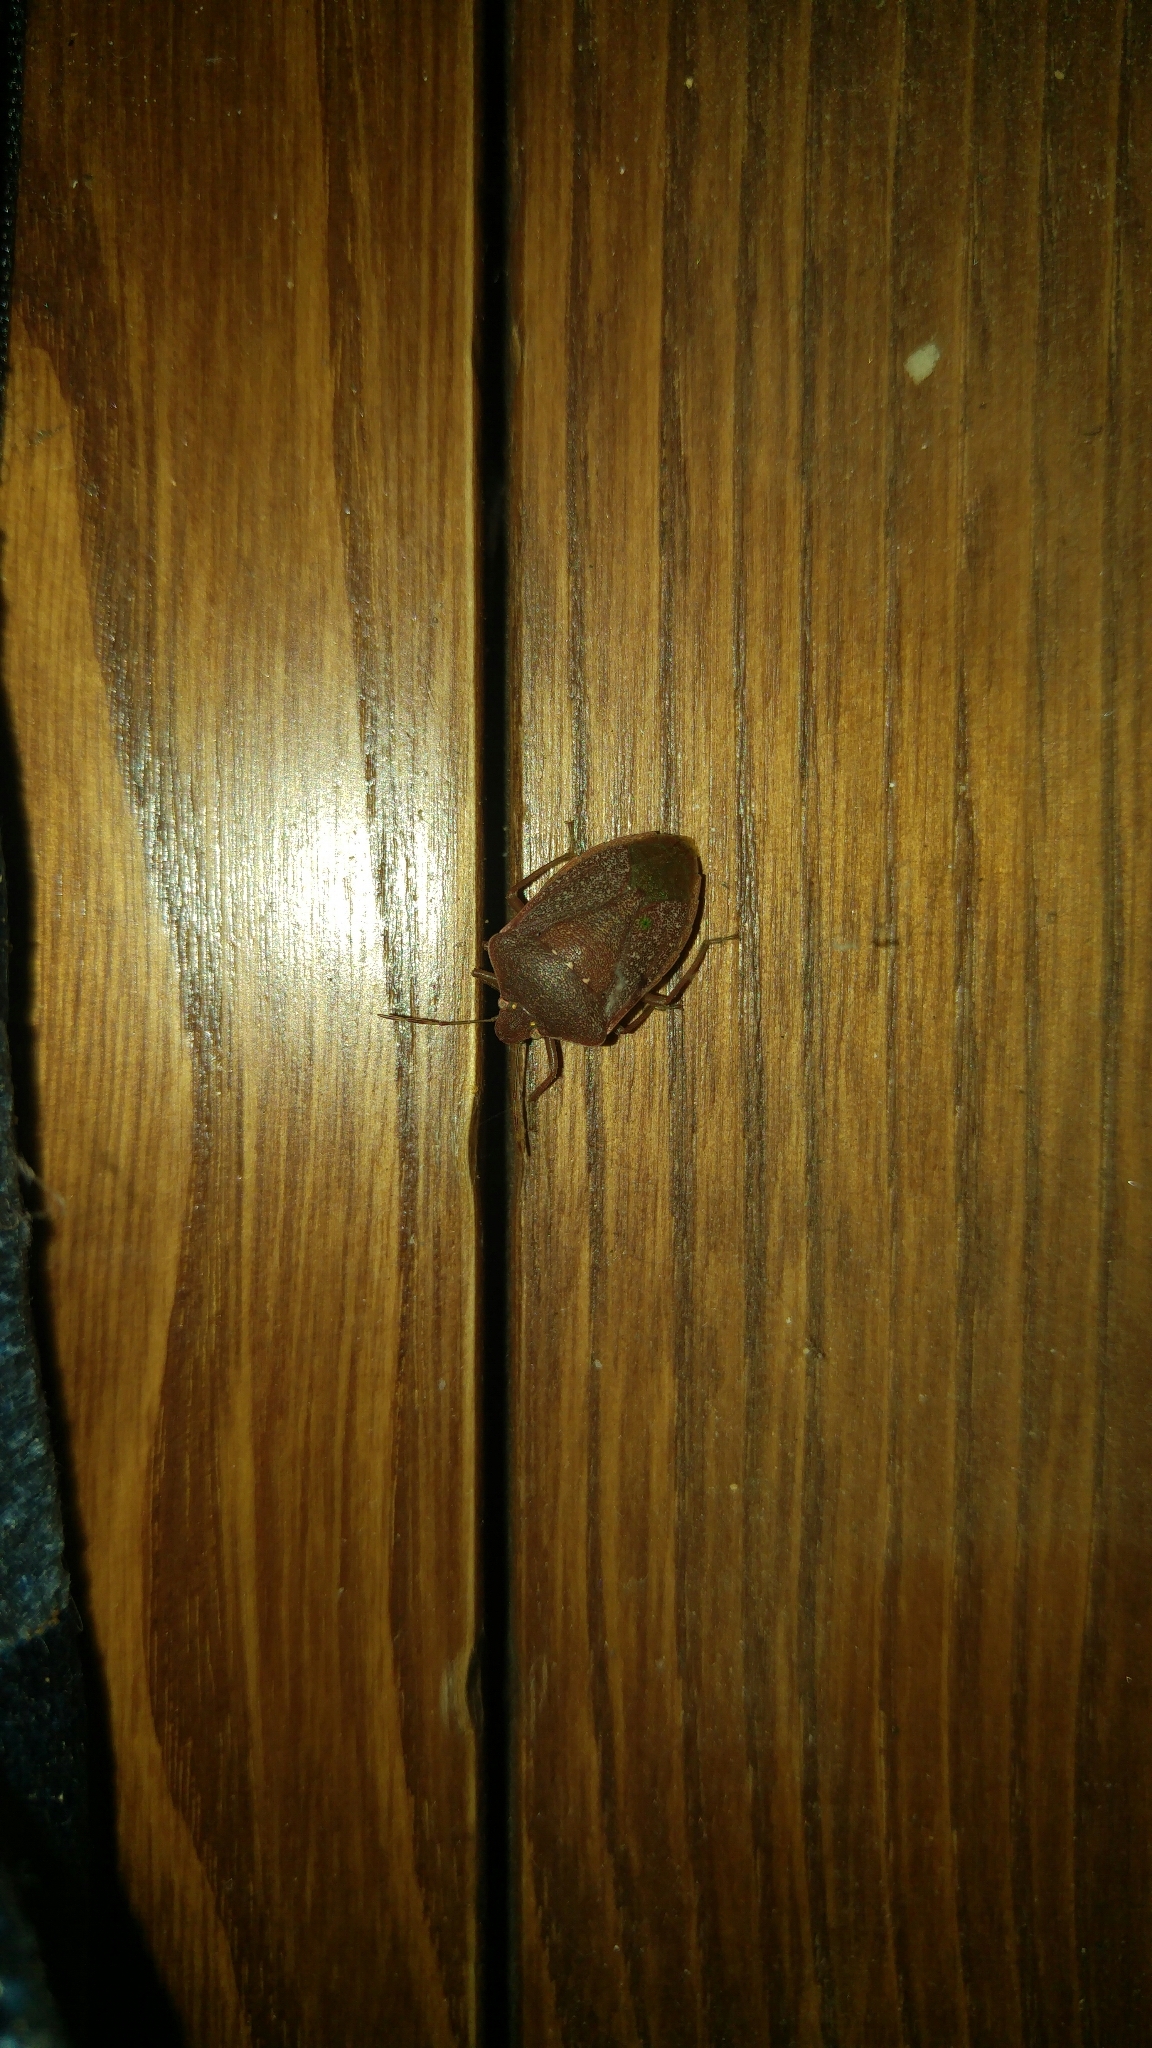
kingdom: Animalia
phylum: Arthropoda
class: Insecta
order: Hemiptera
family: Pentatomidae
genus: Nezara
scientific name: Nezara viridula
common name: Southern green stink bug
